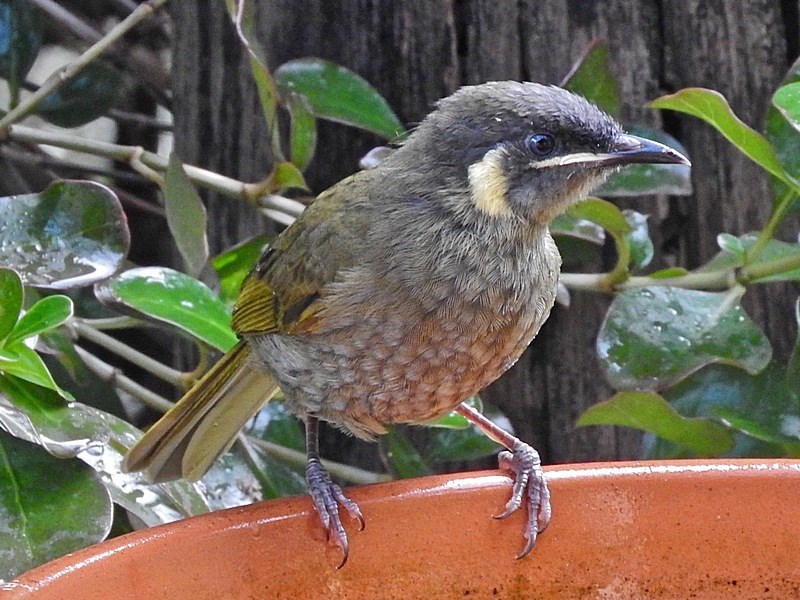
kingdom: Animalia
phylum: Chordata
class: Aves
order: Passeriformes
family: Meliphagidae
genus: Meliphaga
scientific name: Meliphaga lewinii
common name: Lewin's honeyeater
